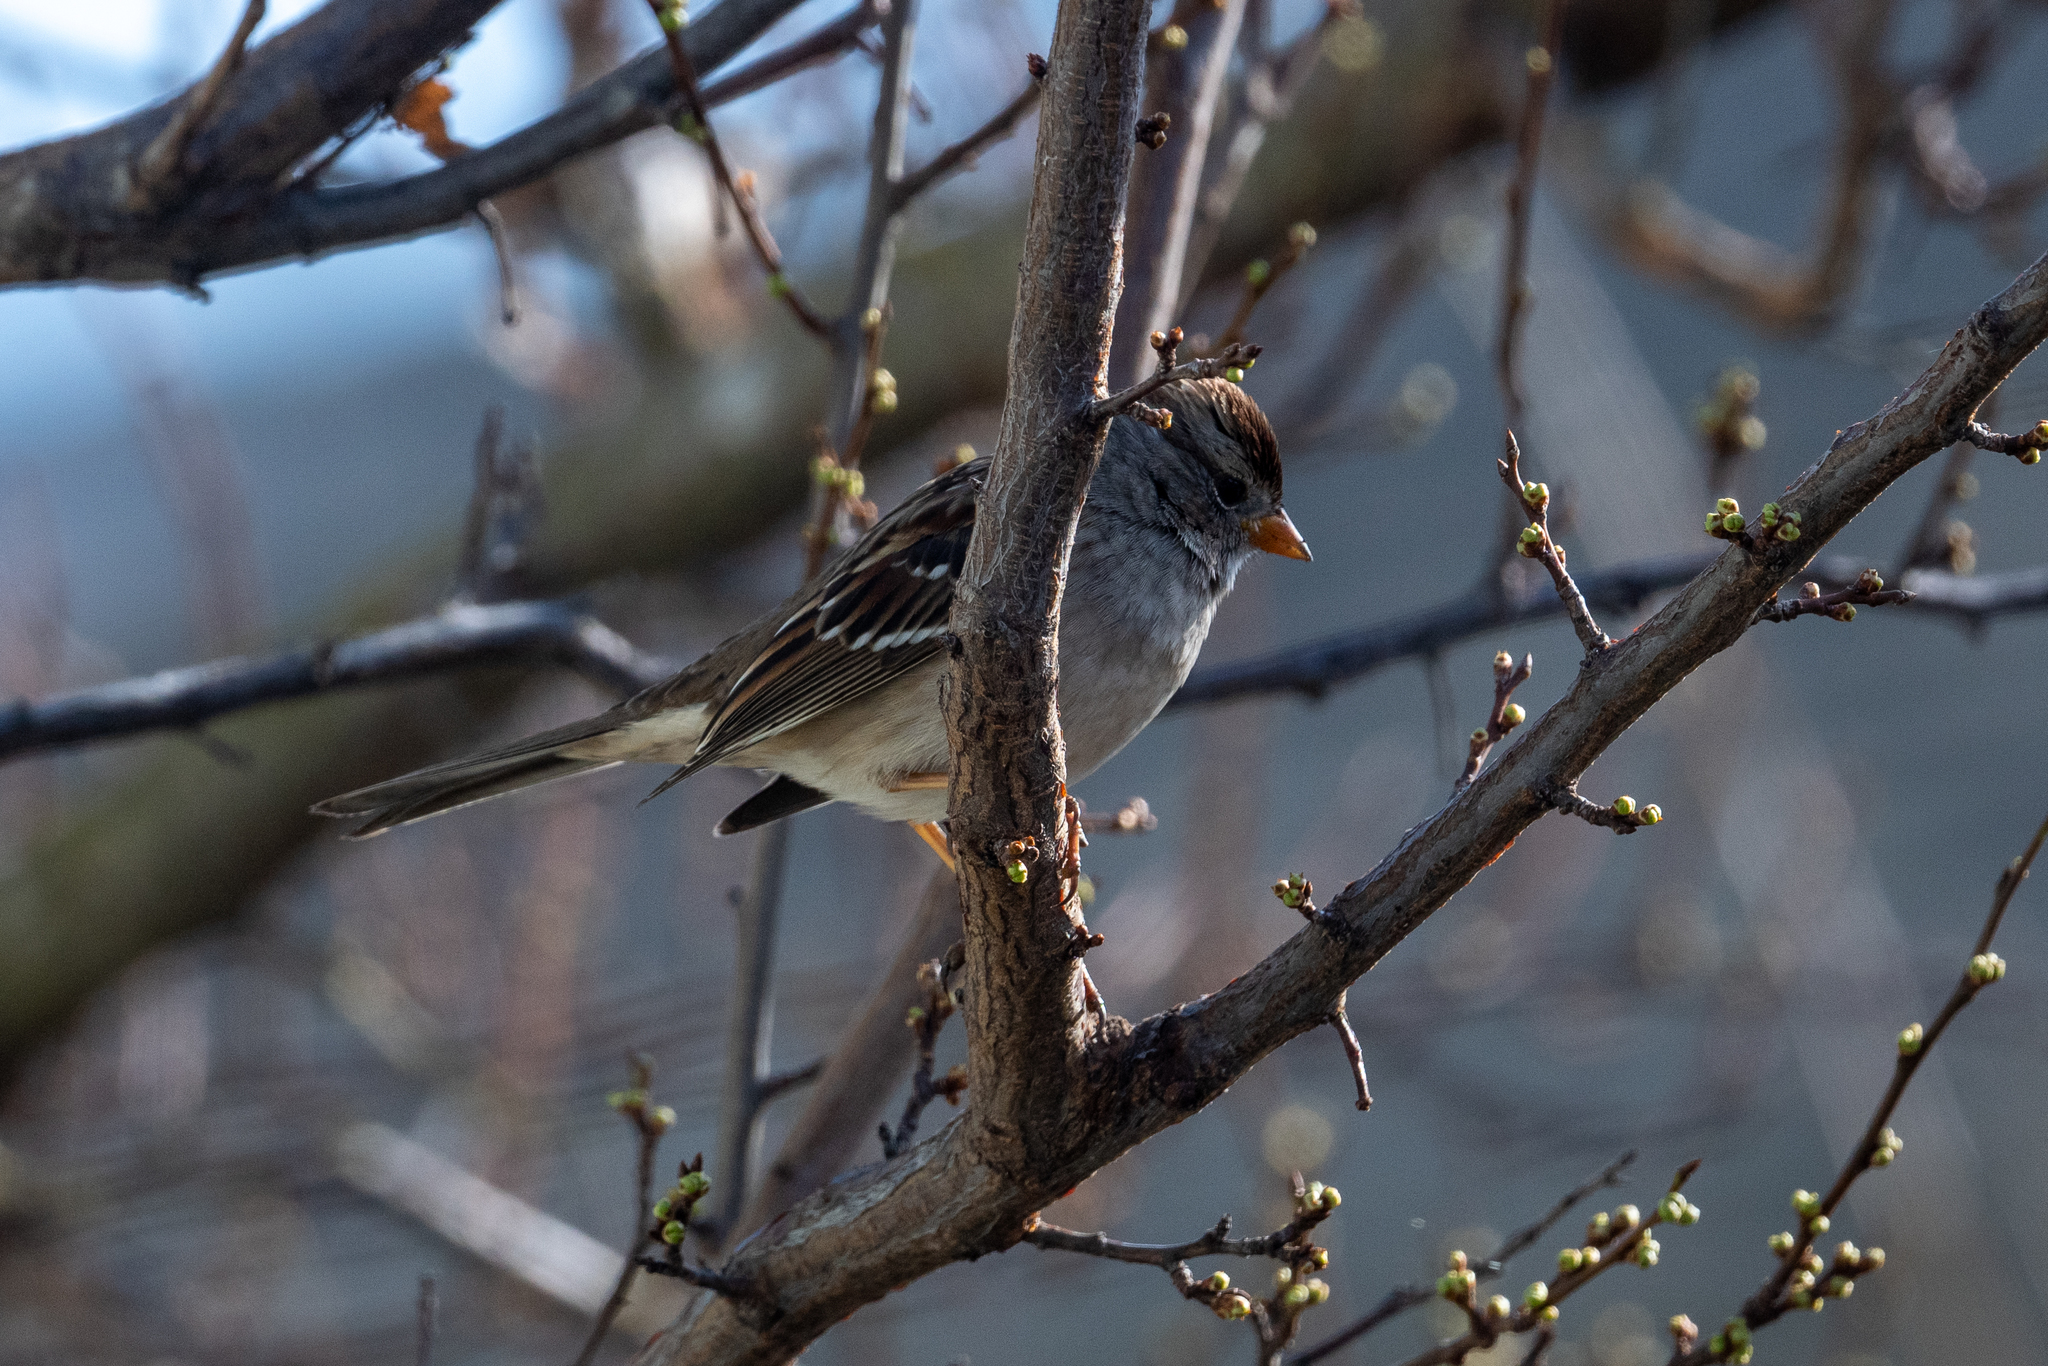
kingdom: Animalia
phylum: Chordata
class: Aves
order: Passeriformes
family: Passerellidae
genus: Zonotrichia
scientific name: Zonotrichia leucophrys
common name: White-crowned sparrow
